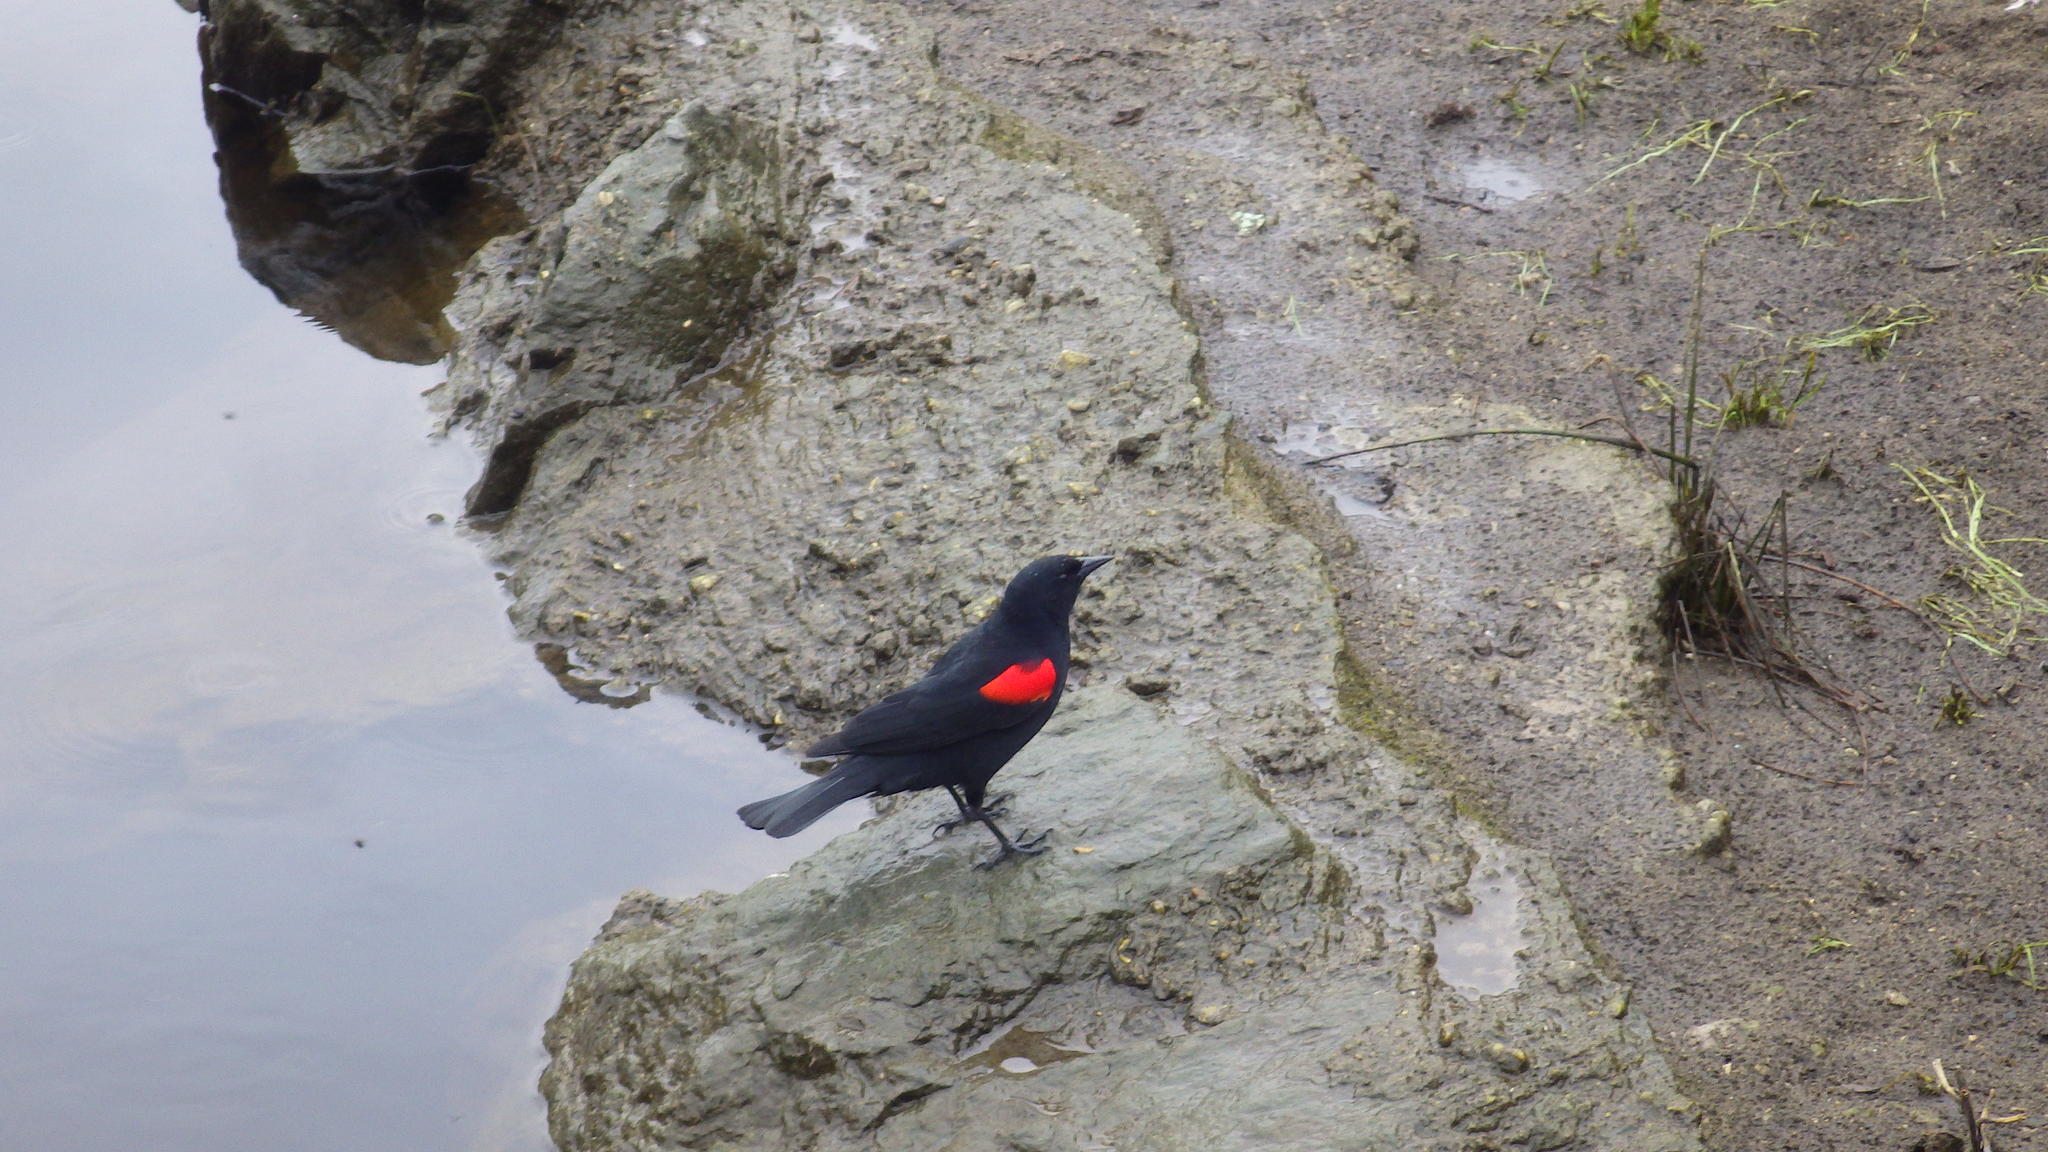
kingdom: Animalia
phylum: Chordata
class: Aves
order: Passeriformes
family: Icteridae
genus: Agelaius
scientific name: Agelaius phoeniceus
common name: Red-winged blackbird
